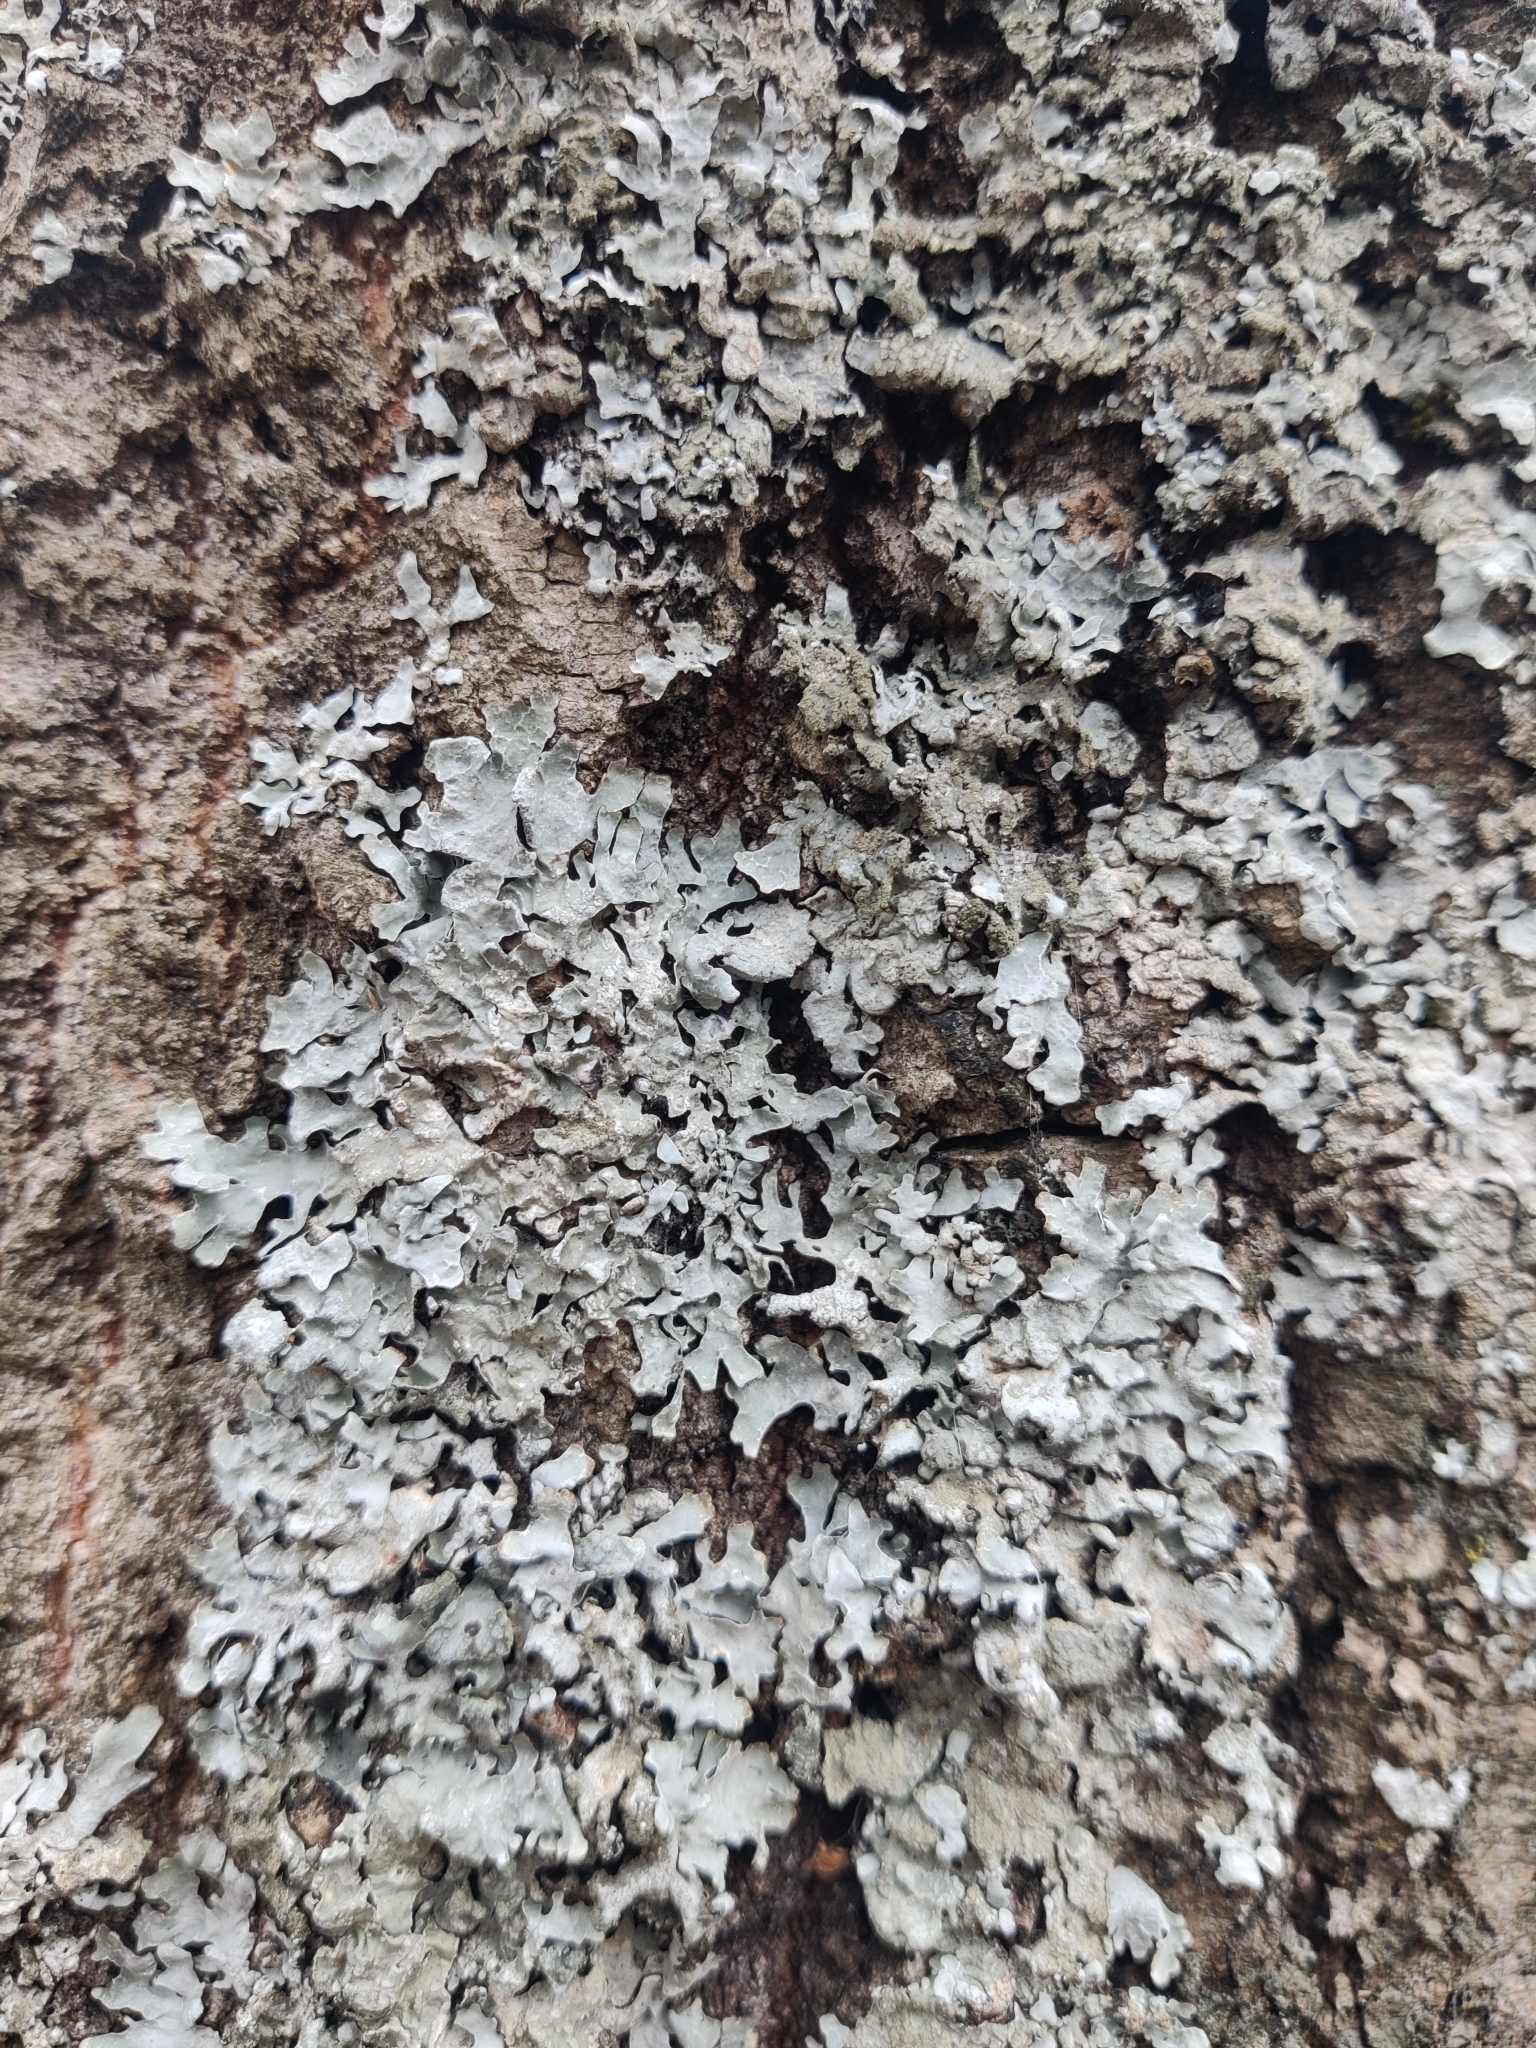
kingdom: Fungi
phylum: Ascomycota
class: Lecanoromycetes
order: Lecanorales
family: Parmeliaceae
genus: Parmelia
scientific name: Parmelia sulcata
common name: Netted shield lichen
